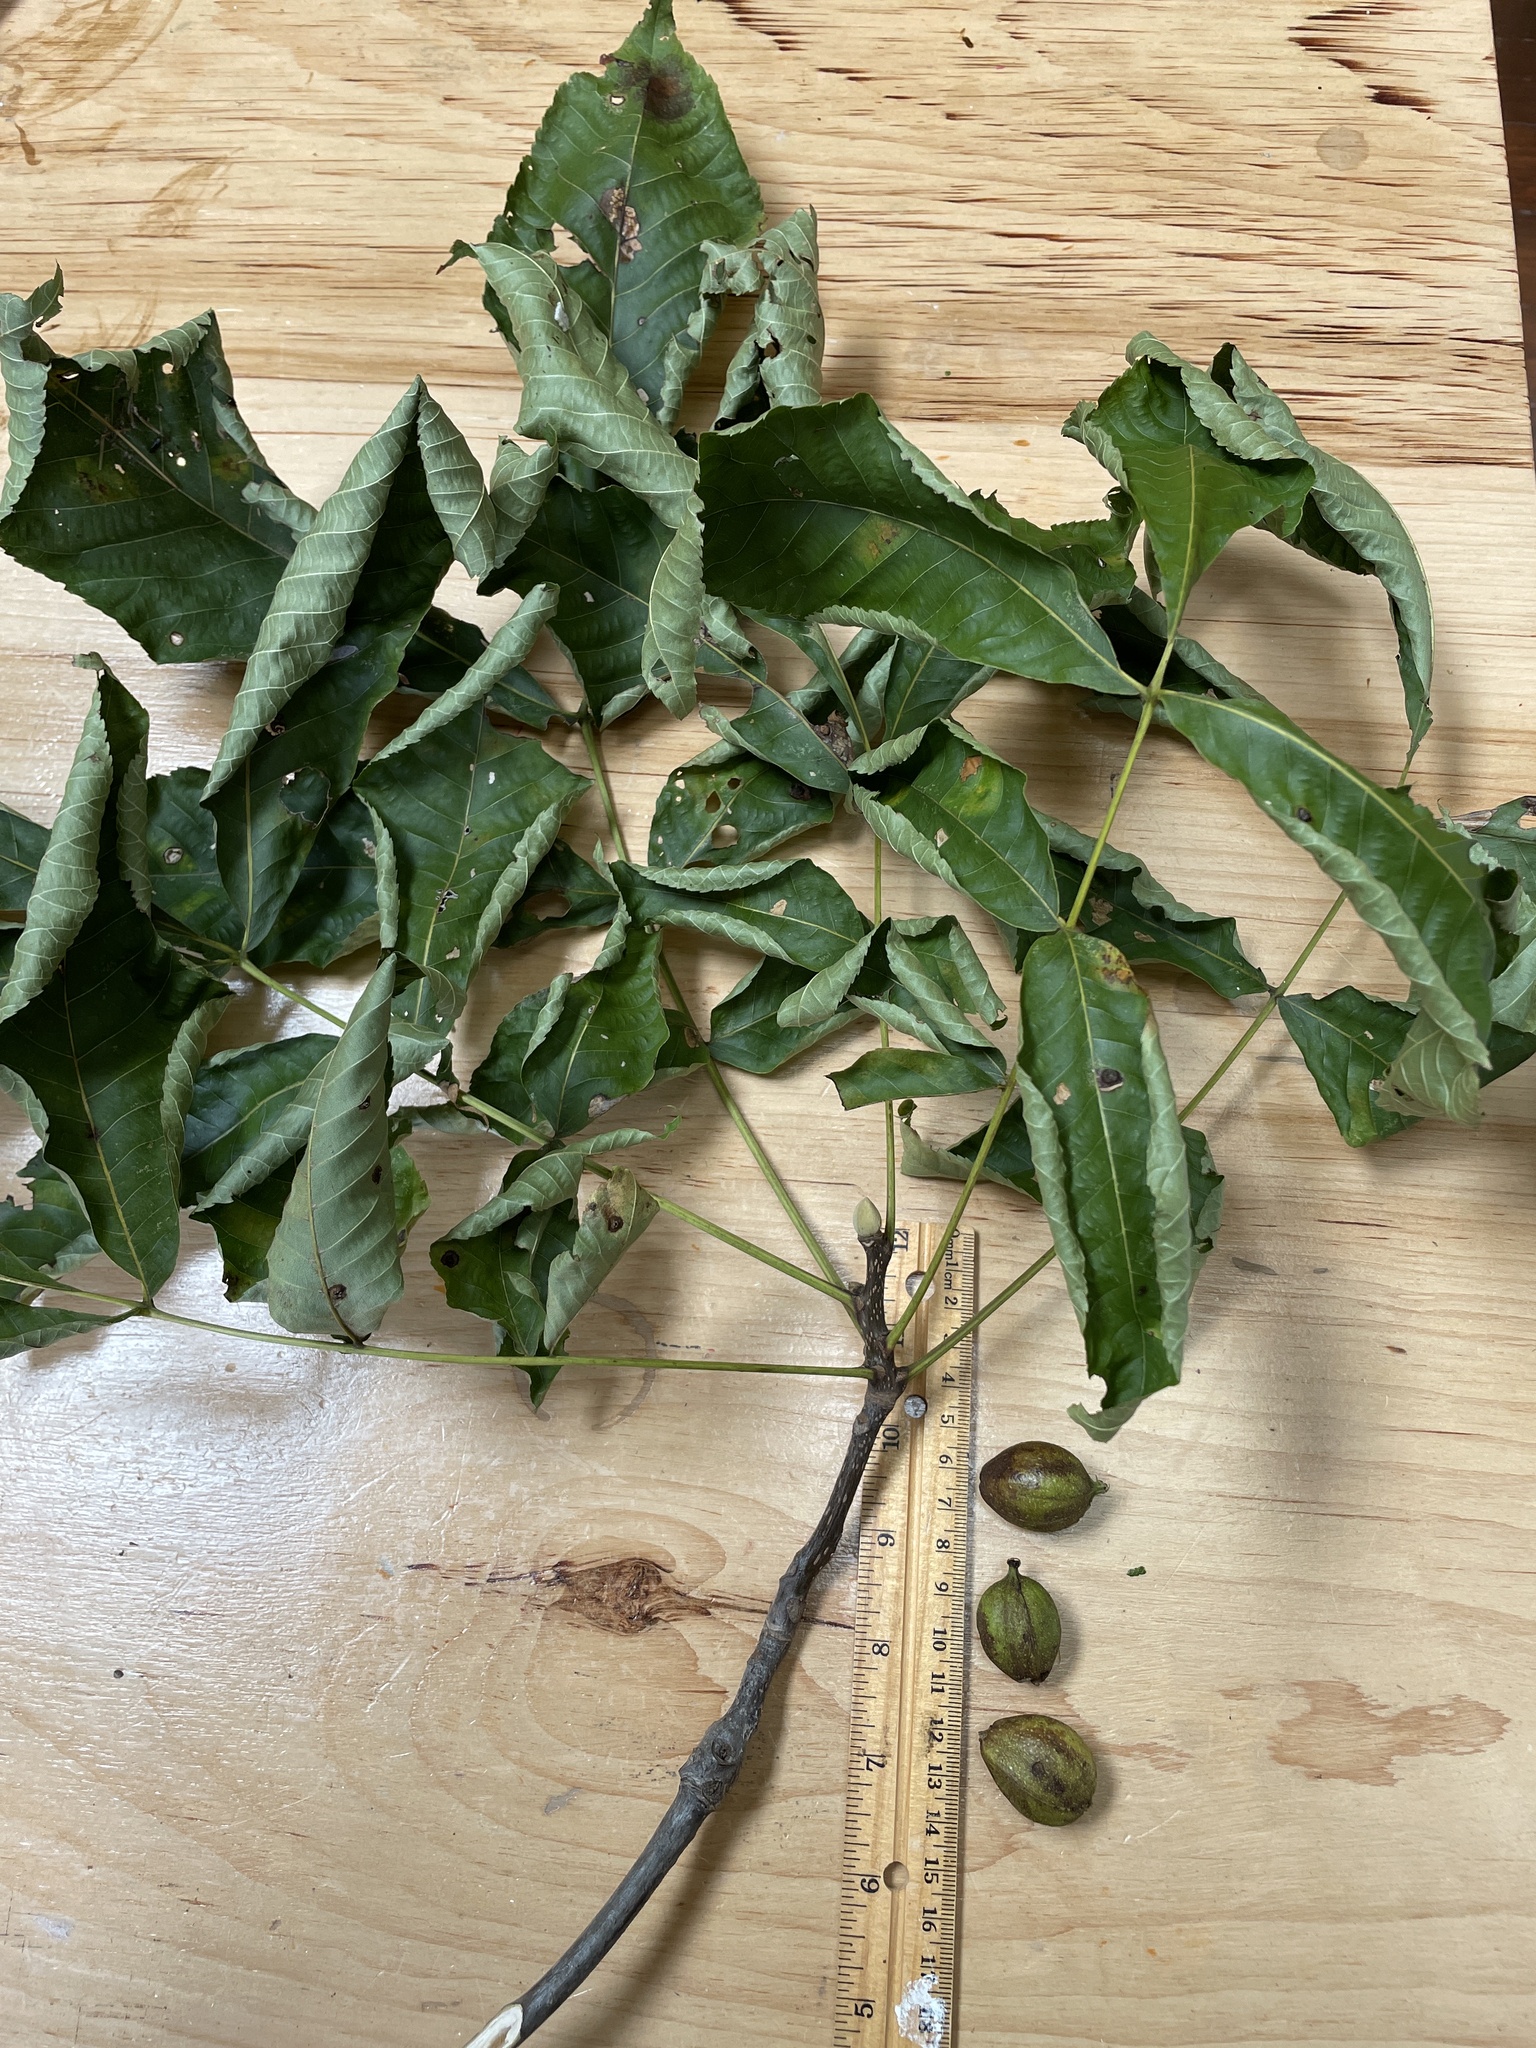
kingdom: Plantae
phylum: Tracheophyta
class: Magnoliopsida
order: Fagales
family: Juglandaceae
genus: Carya
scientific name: Carya glabra
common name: Pignut hickory
